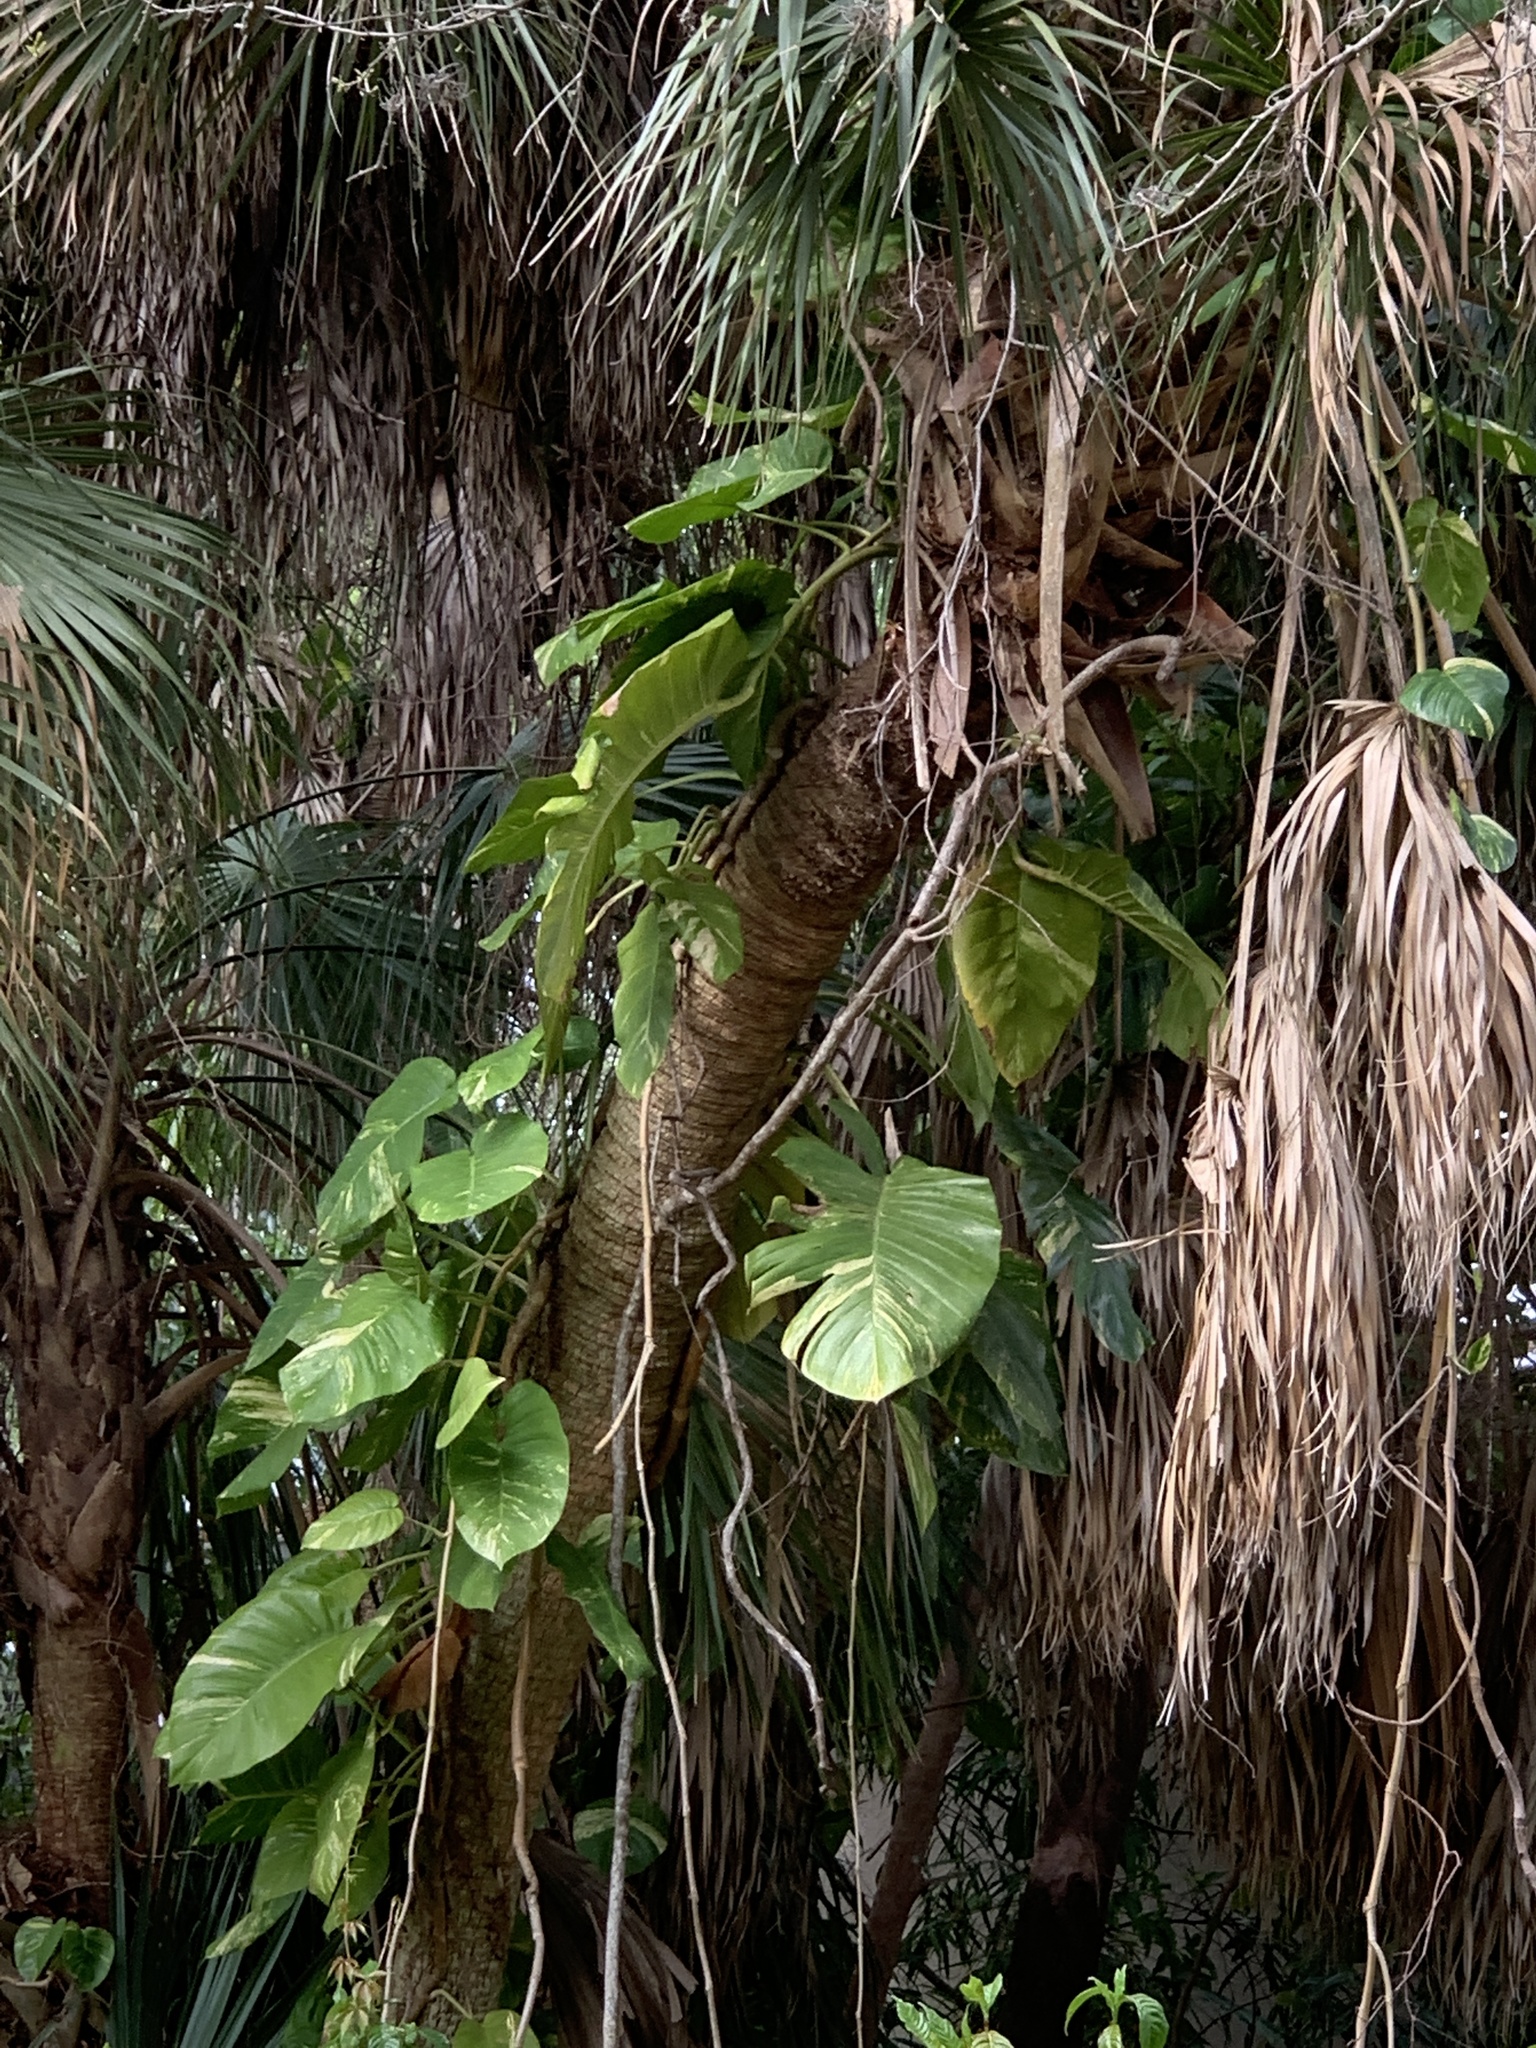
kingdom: Plantae
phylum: Tracheophyta
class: Liliopsida
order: Alismatales
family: Araceae
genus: Epipremnum
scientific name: Epipremnum aureum
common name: Golden hunter's-robe
